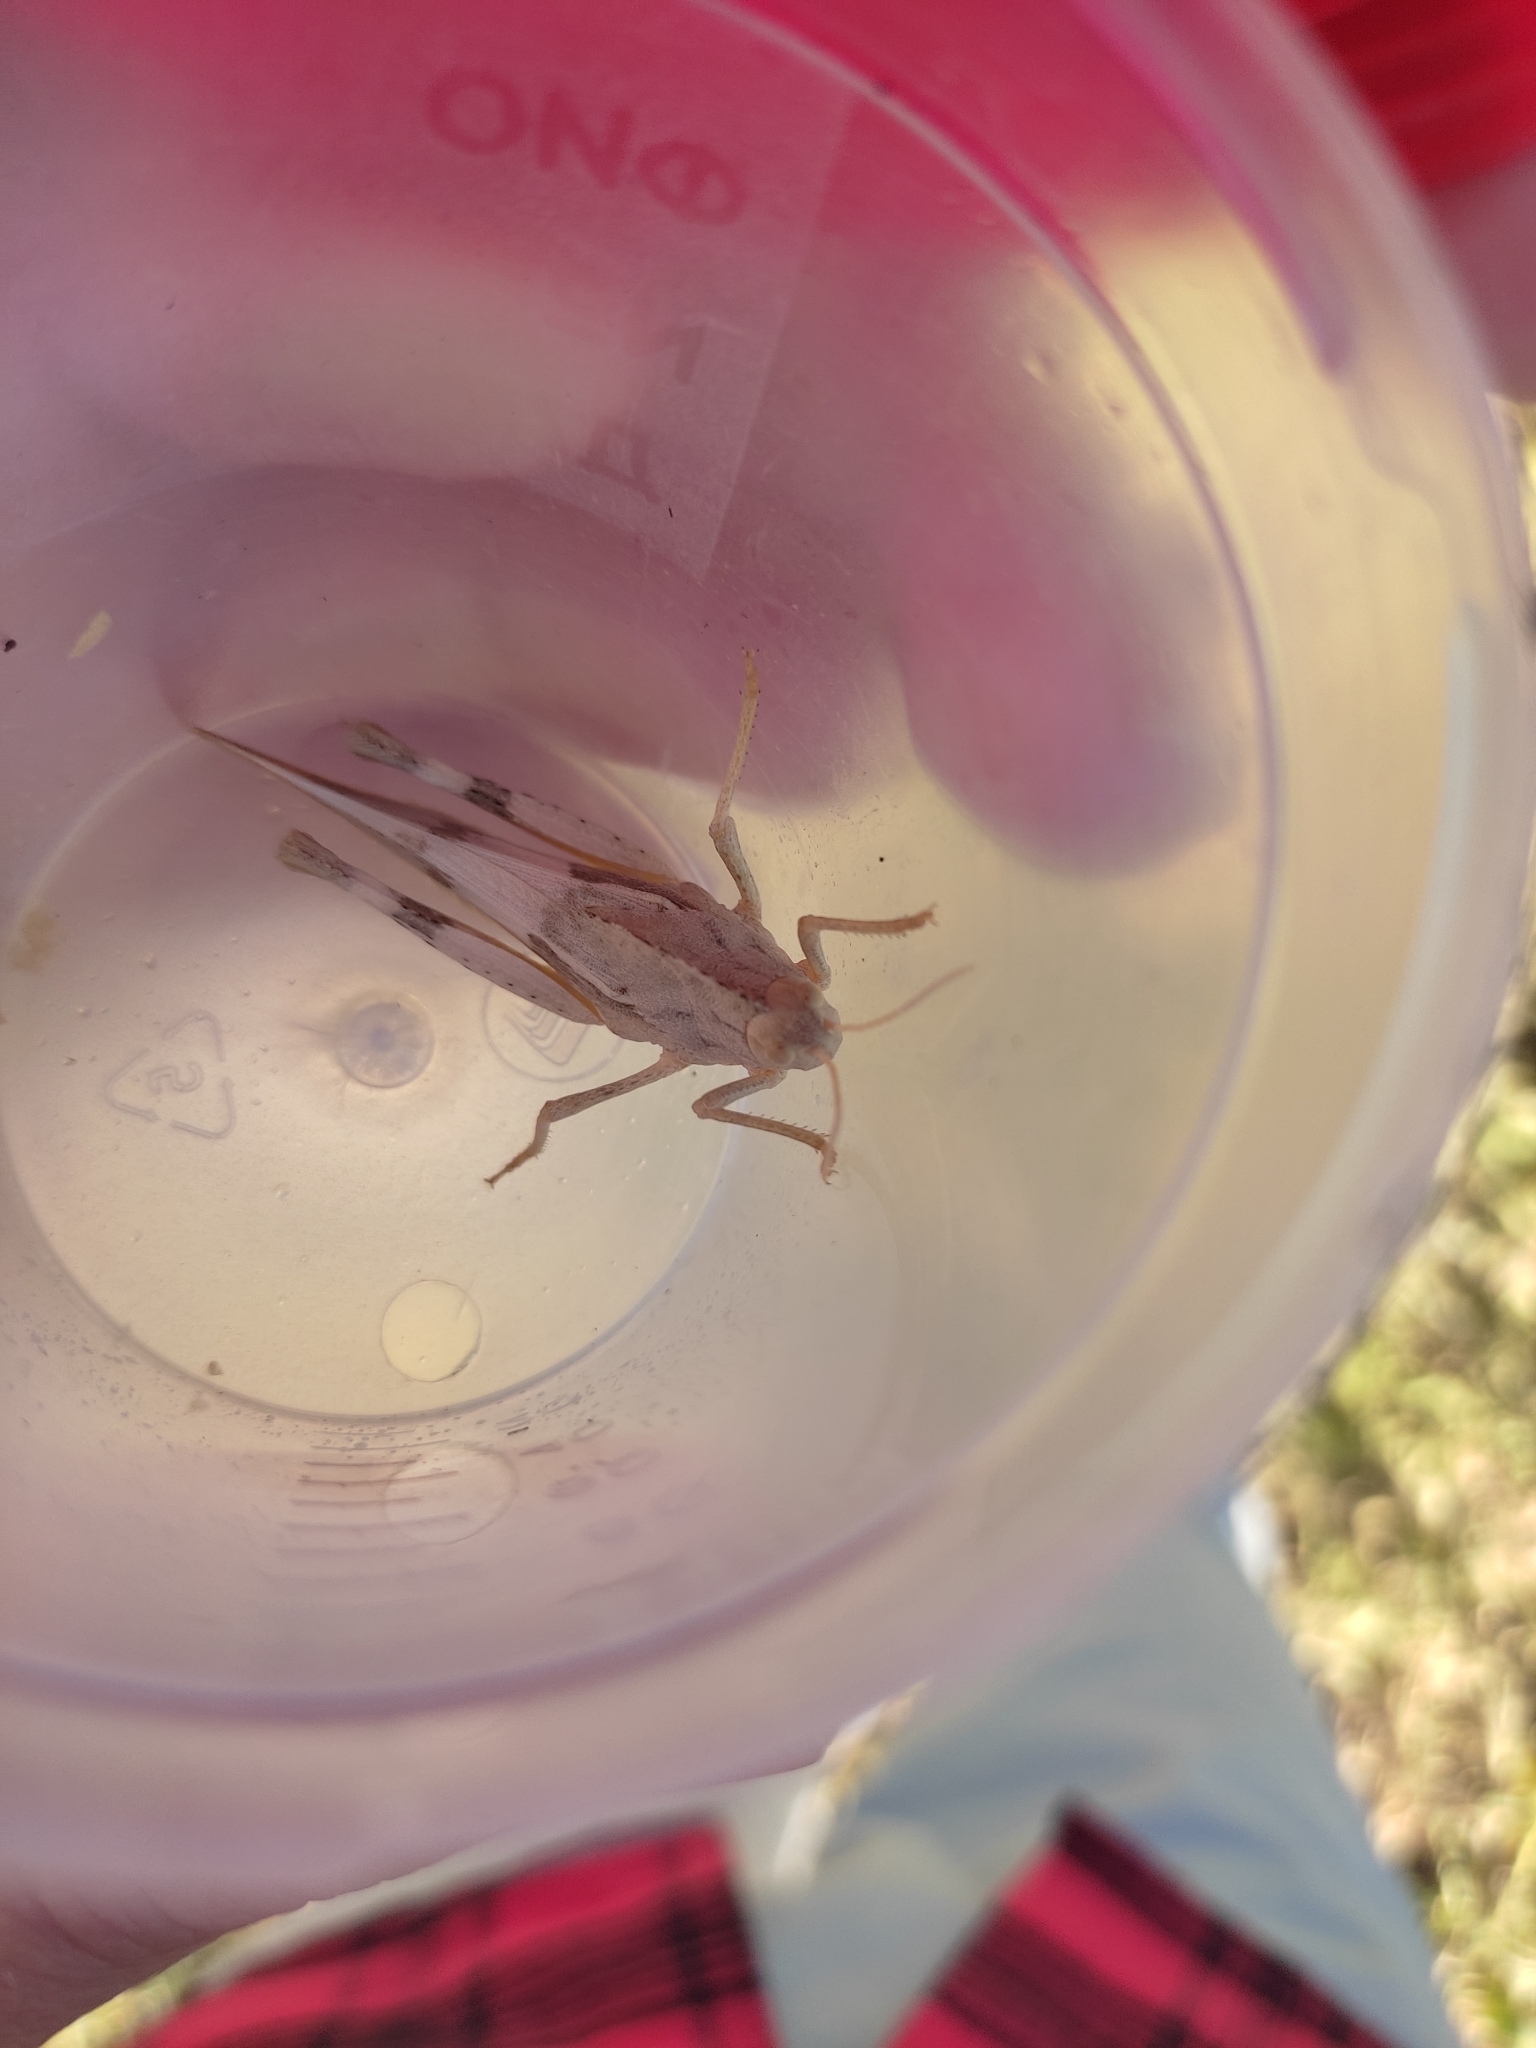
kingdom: Animalia
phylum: Arthropoda
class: Insecta
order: Orthoptera
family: Acrididae
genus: Pyrgodera
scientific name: Pyrgodera armata
